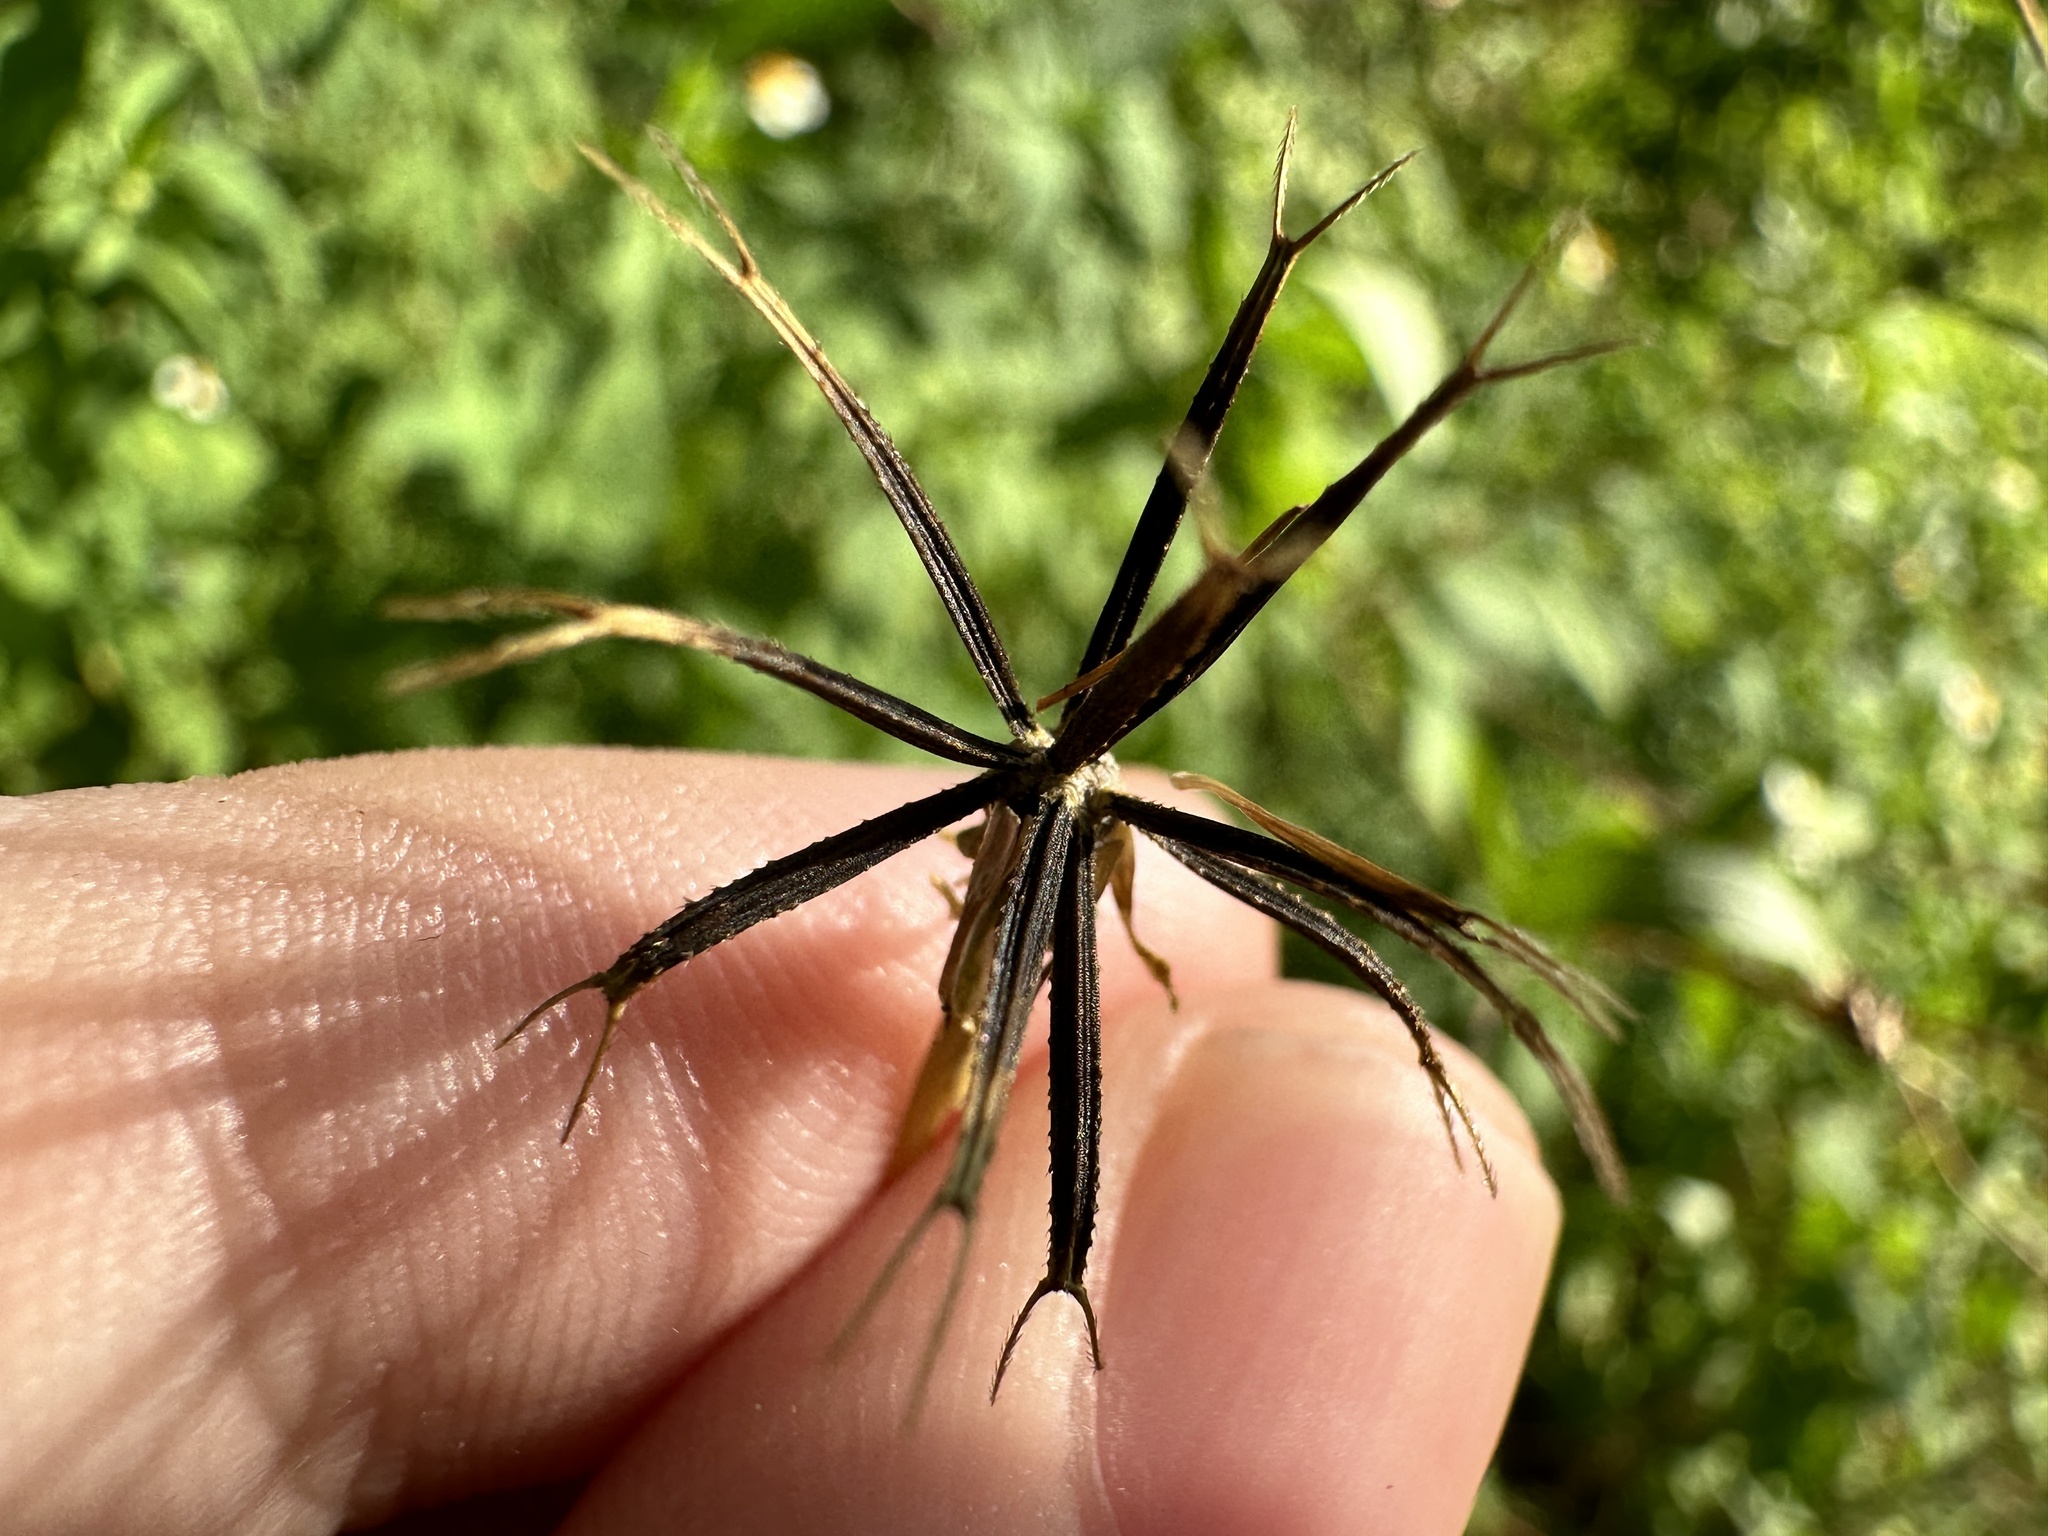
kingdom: Plantae
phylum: Tracheophyta
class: Magnoliopsida
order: Asterales
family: Asteraceae
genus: Bidens
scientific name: Bidens alba
